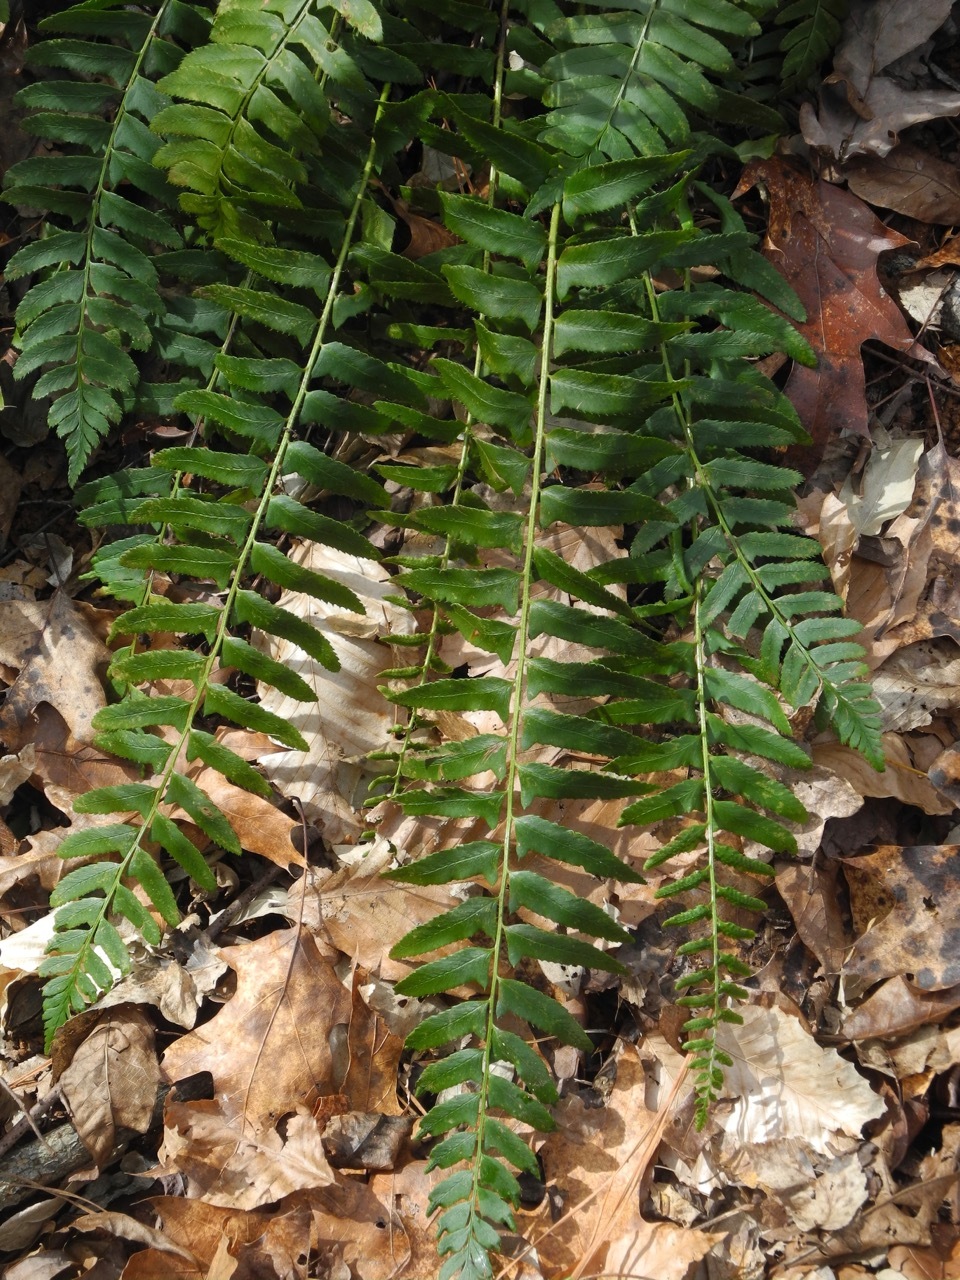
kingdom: Plantae
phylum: Tracheophyta
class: Polypodiopsida
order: Polypodiales
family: Dryopteridaceae
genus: Polystichum
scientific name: Polystichum acrostichoides
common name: Christmas fern
